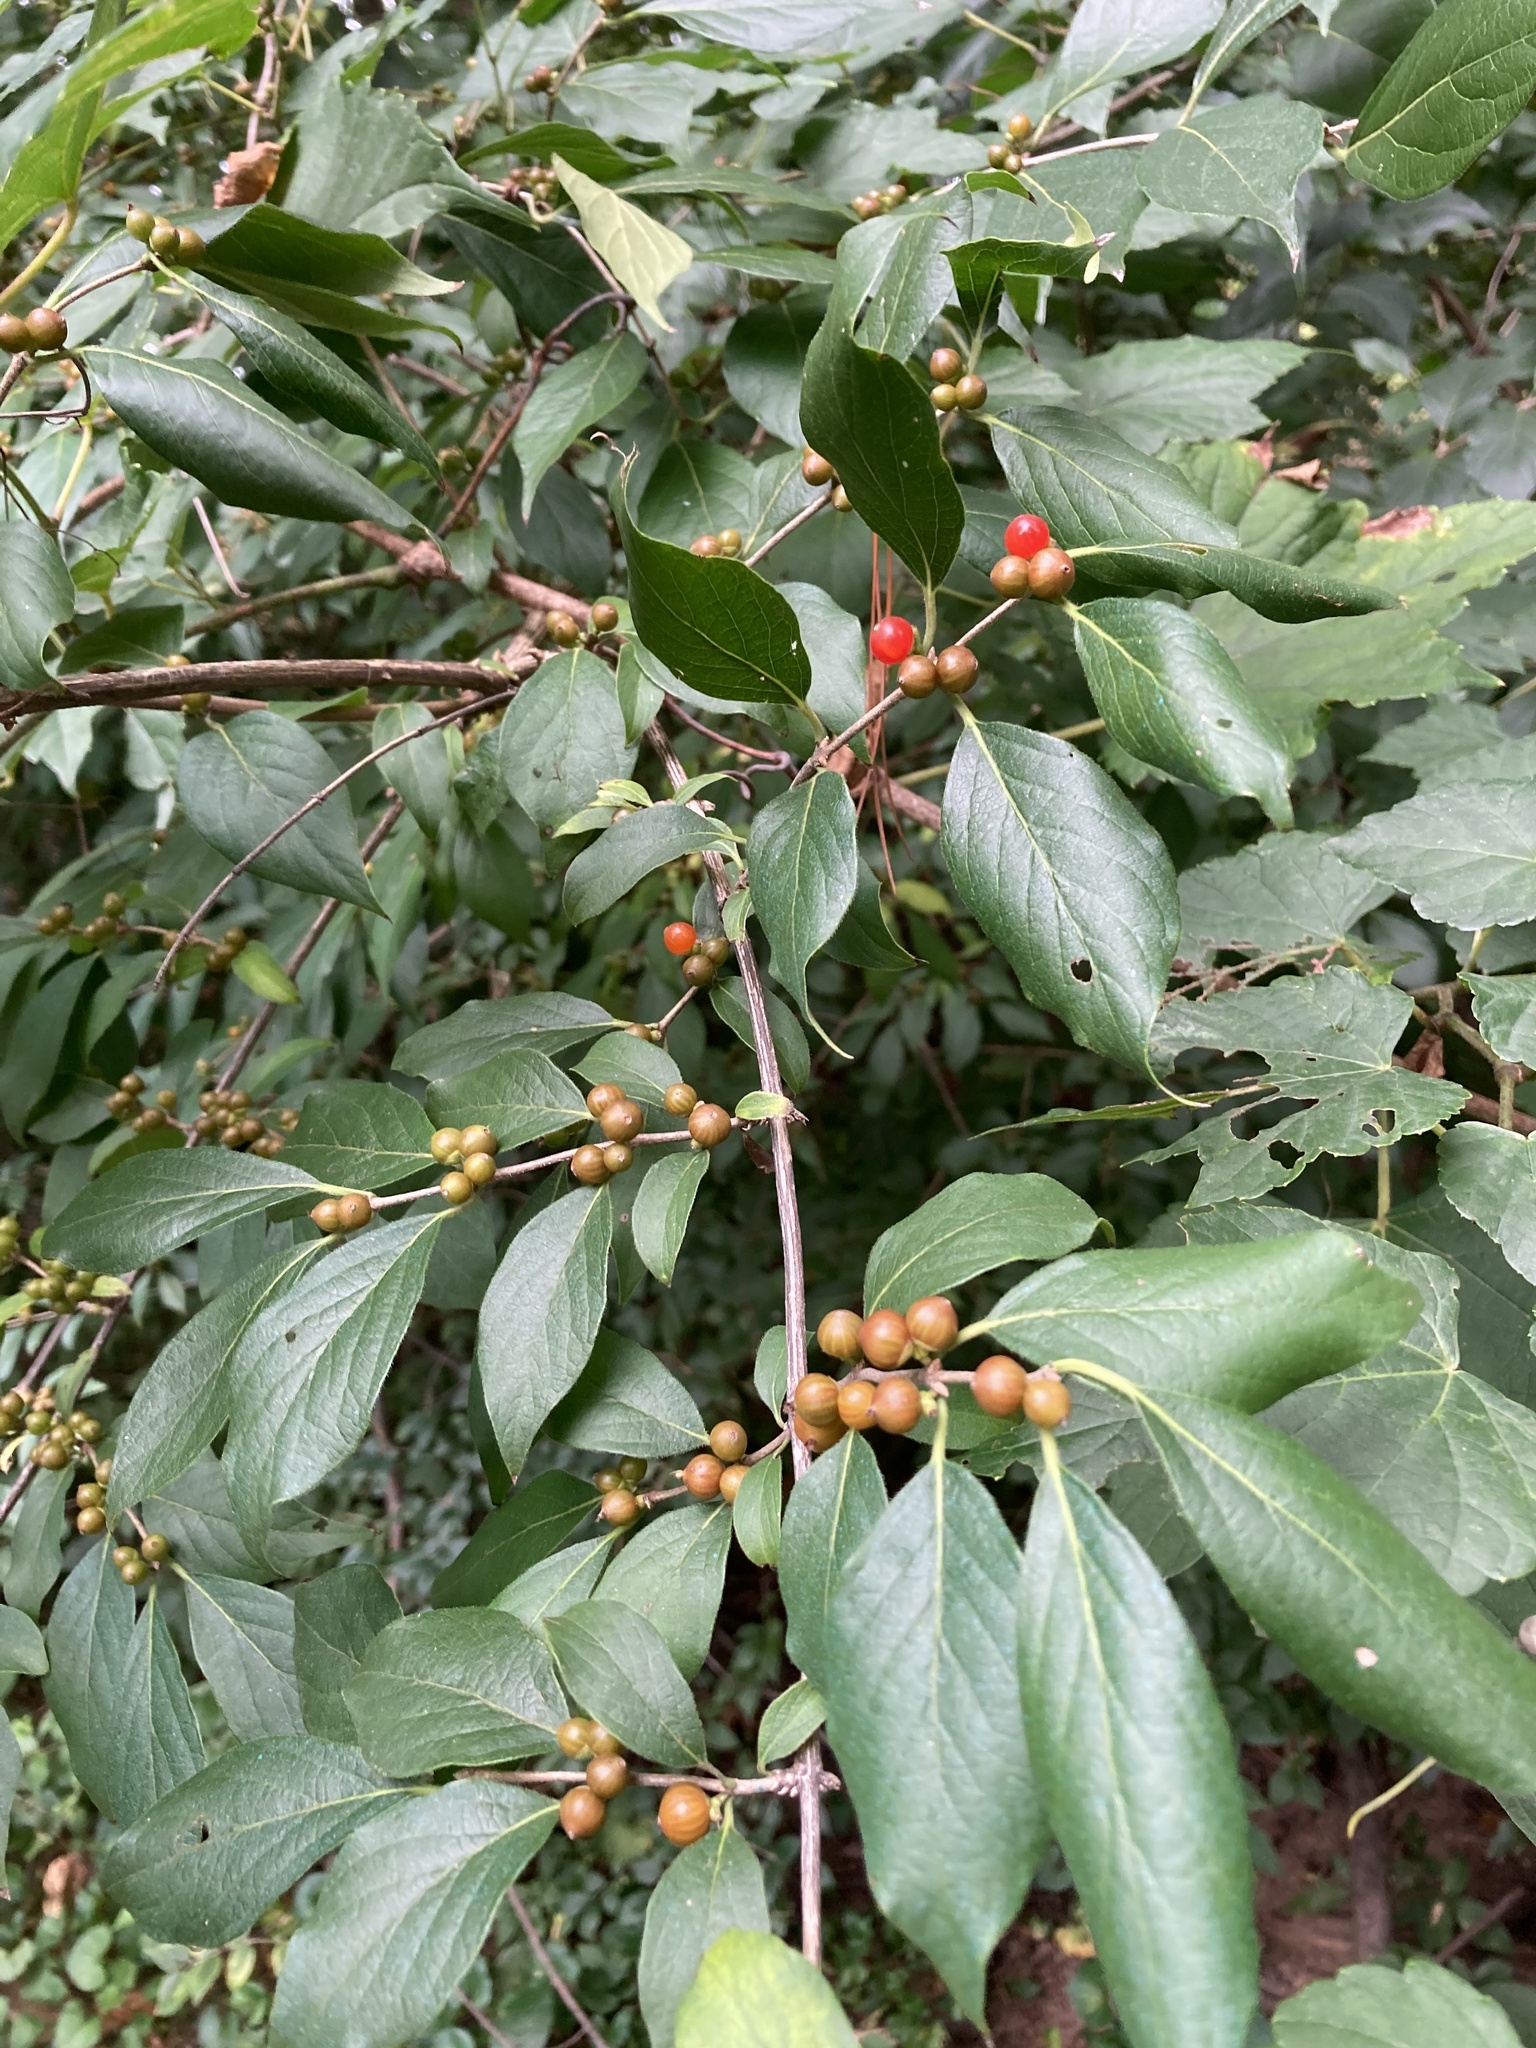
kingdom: Plantae
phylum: Tracheophyta
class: Magnoliopsida
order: Dipsacales
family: Caprifoliaceae
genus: Lonicera
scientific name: Lonicera maackii
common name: Amur honeysuckle
